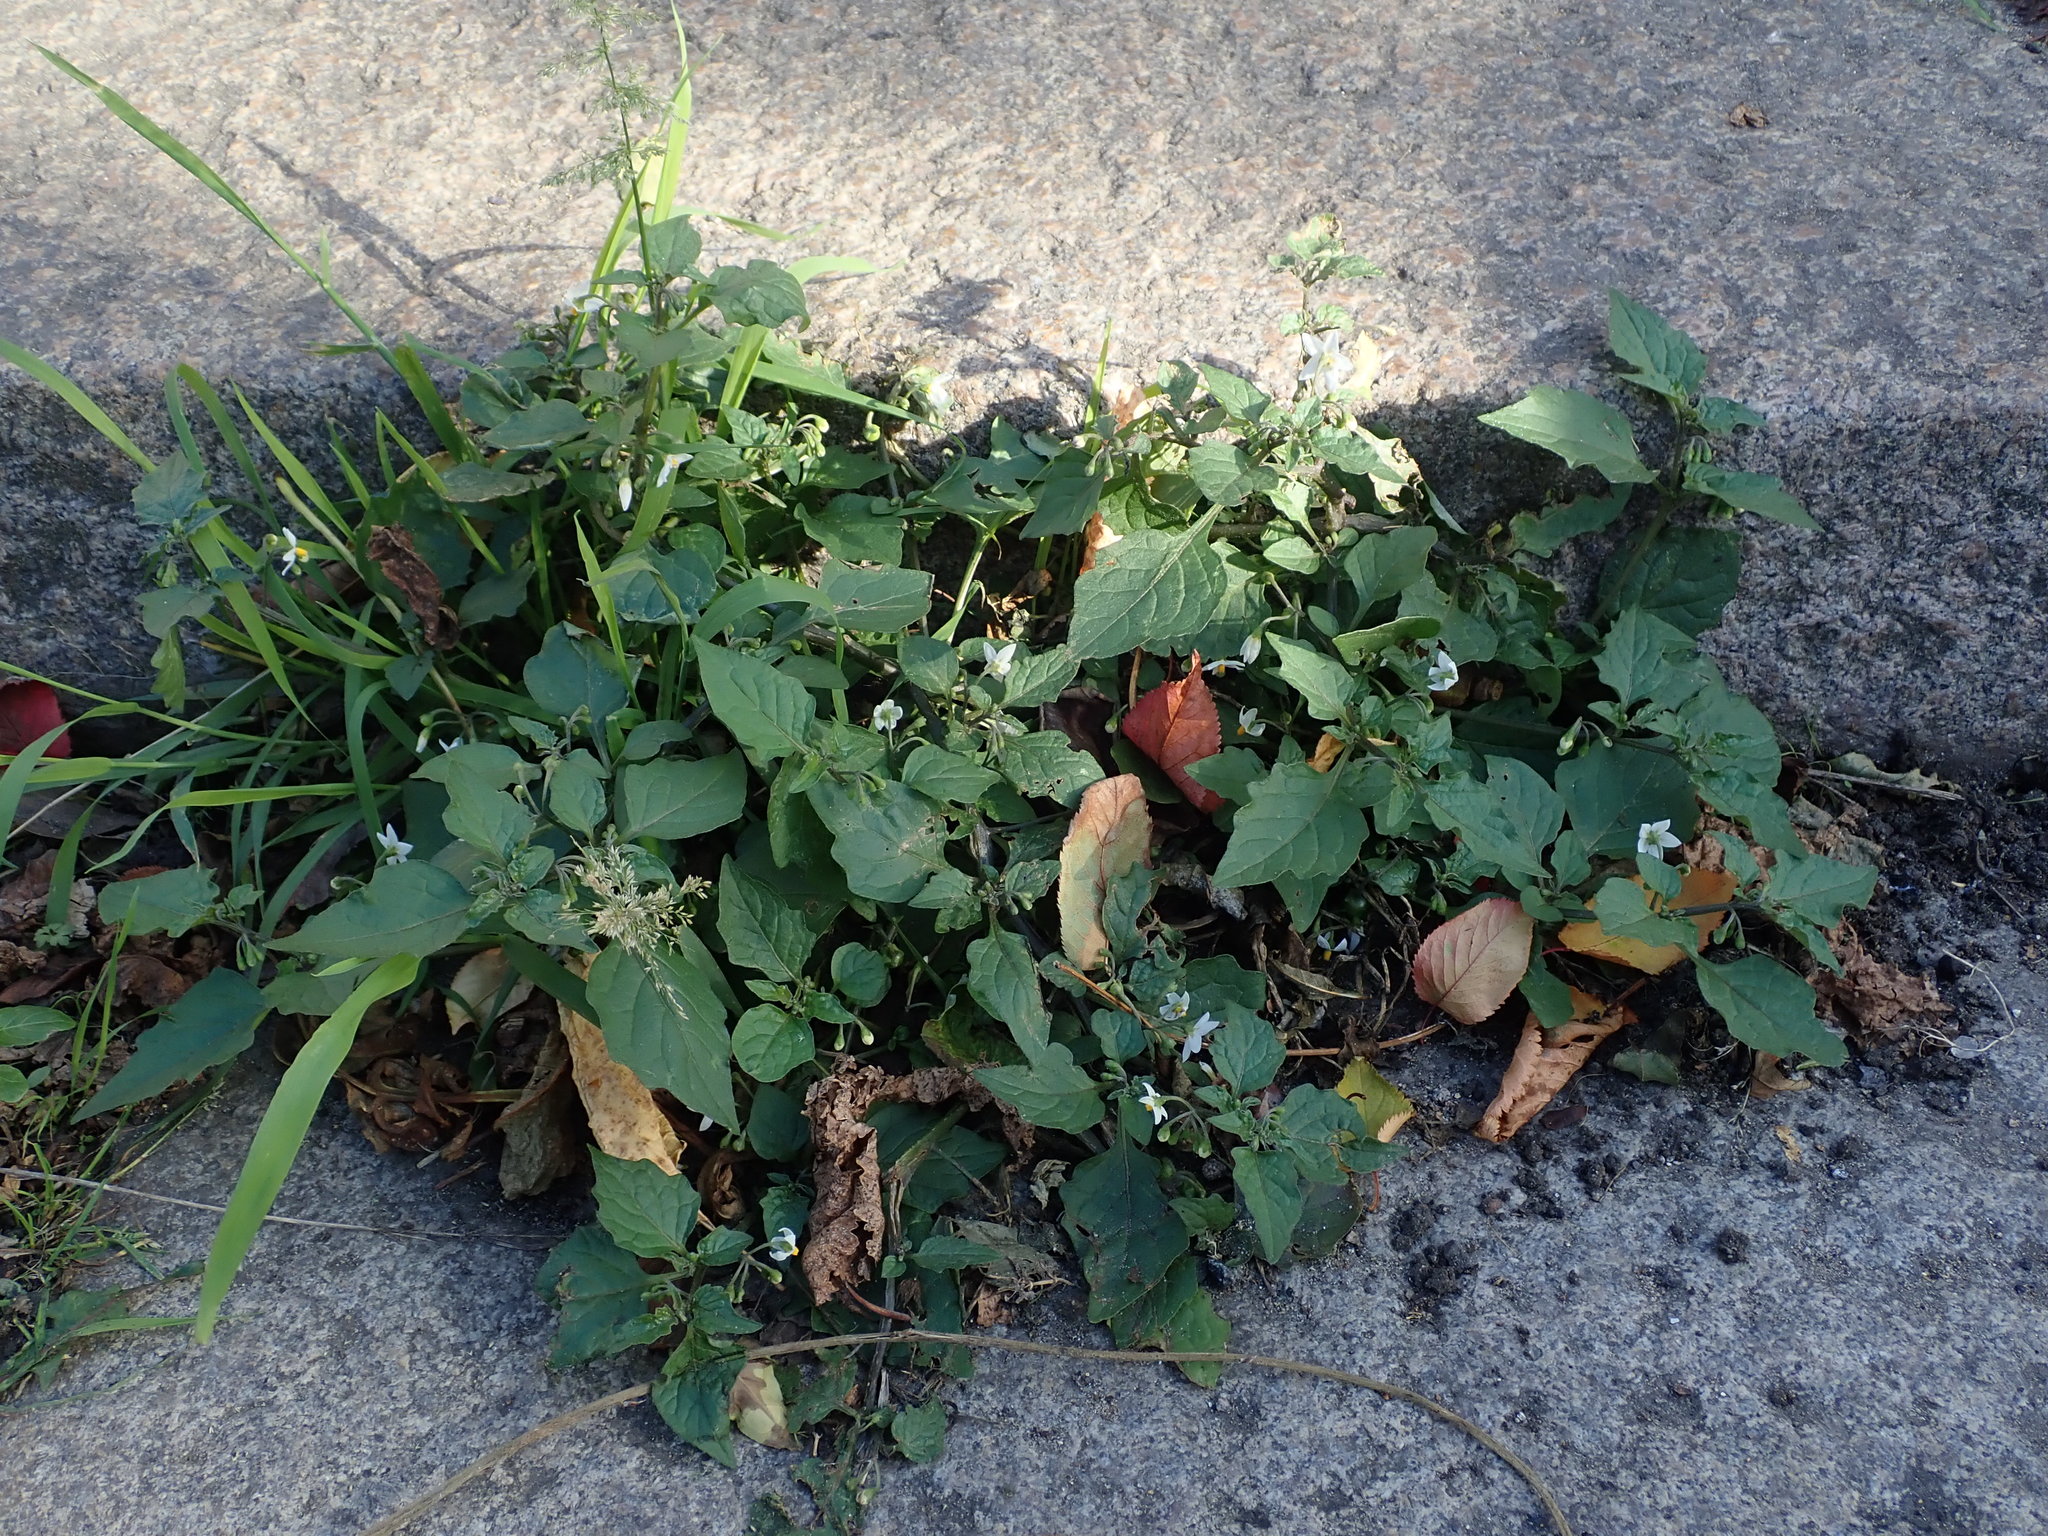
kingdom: Plantae
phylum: Tracheophyta
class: Magnoliopsida
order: Solanales
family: Solanaceae
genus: Solanum
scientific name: Solanum nigrum
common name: Black nightshade
